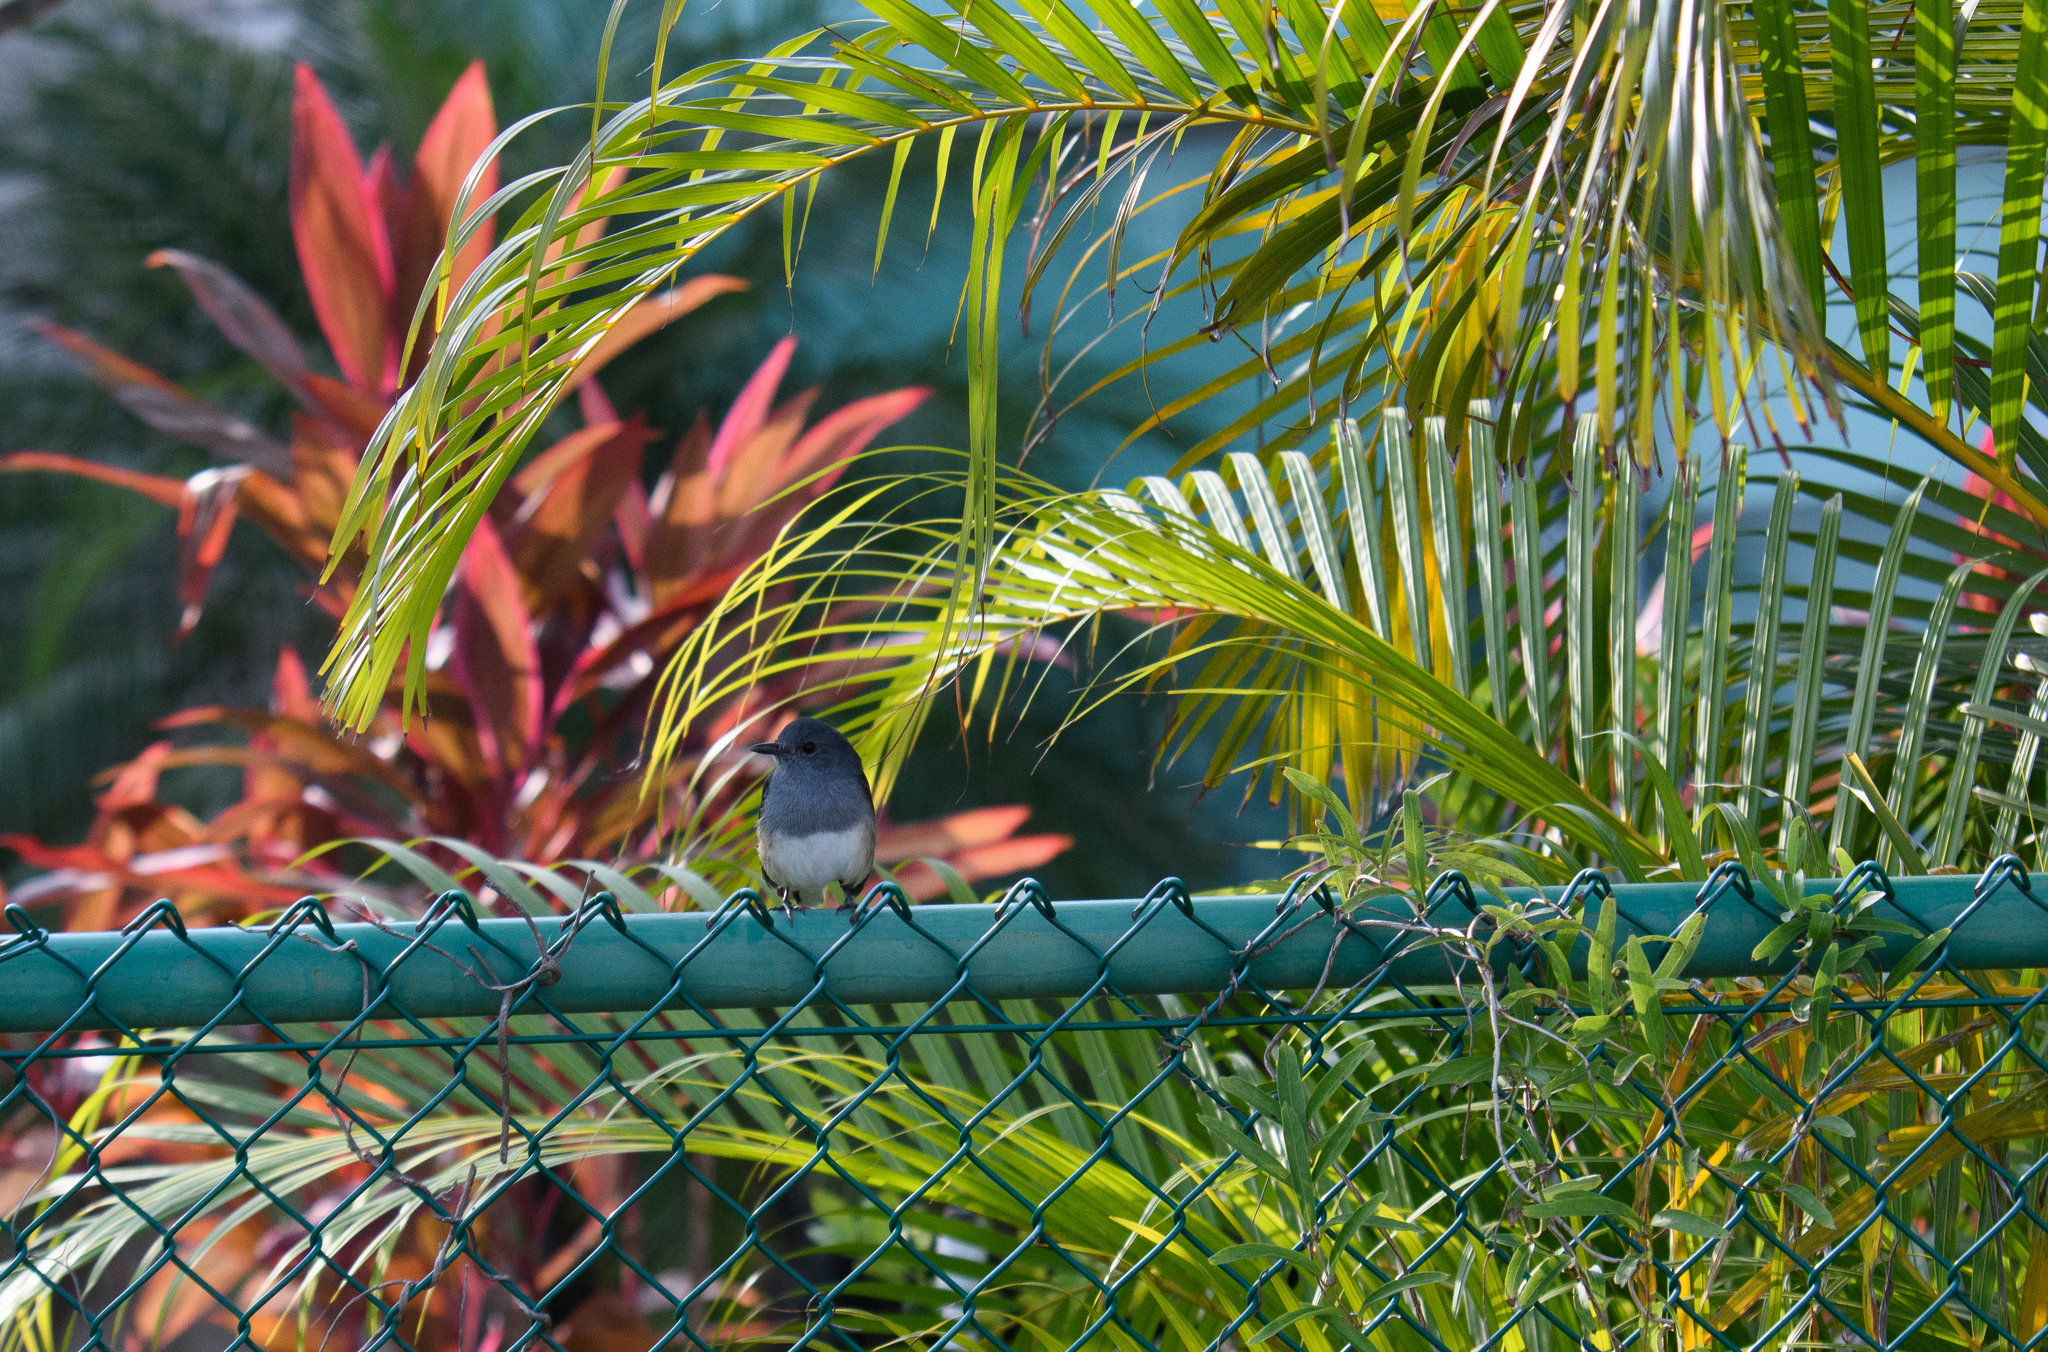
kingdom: Animalia
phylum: Chordata
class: Aves
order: Passeriformes
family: Muscicapidae
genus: Copsychus
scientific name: Copsychus saularis
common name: Oriental magpie-robin
